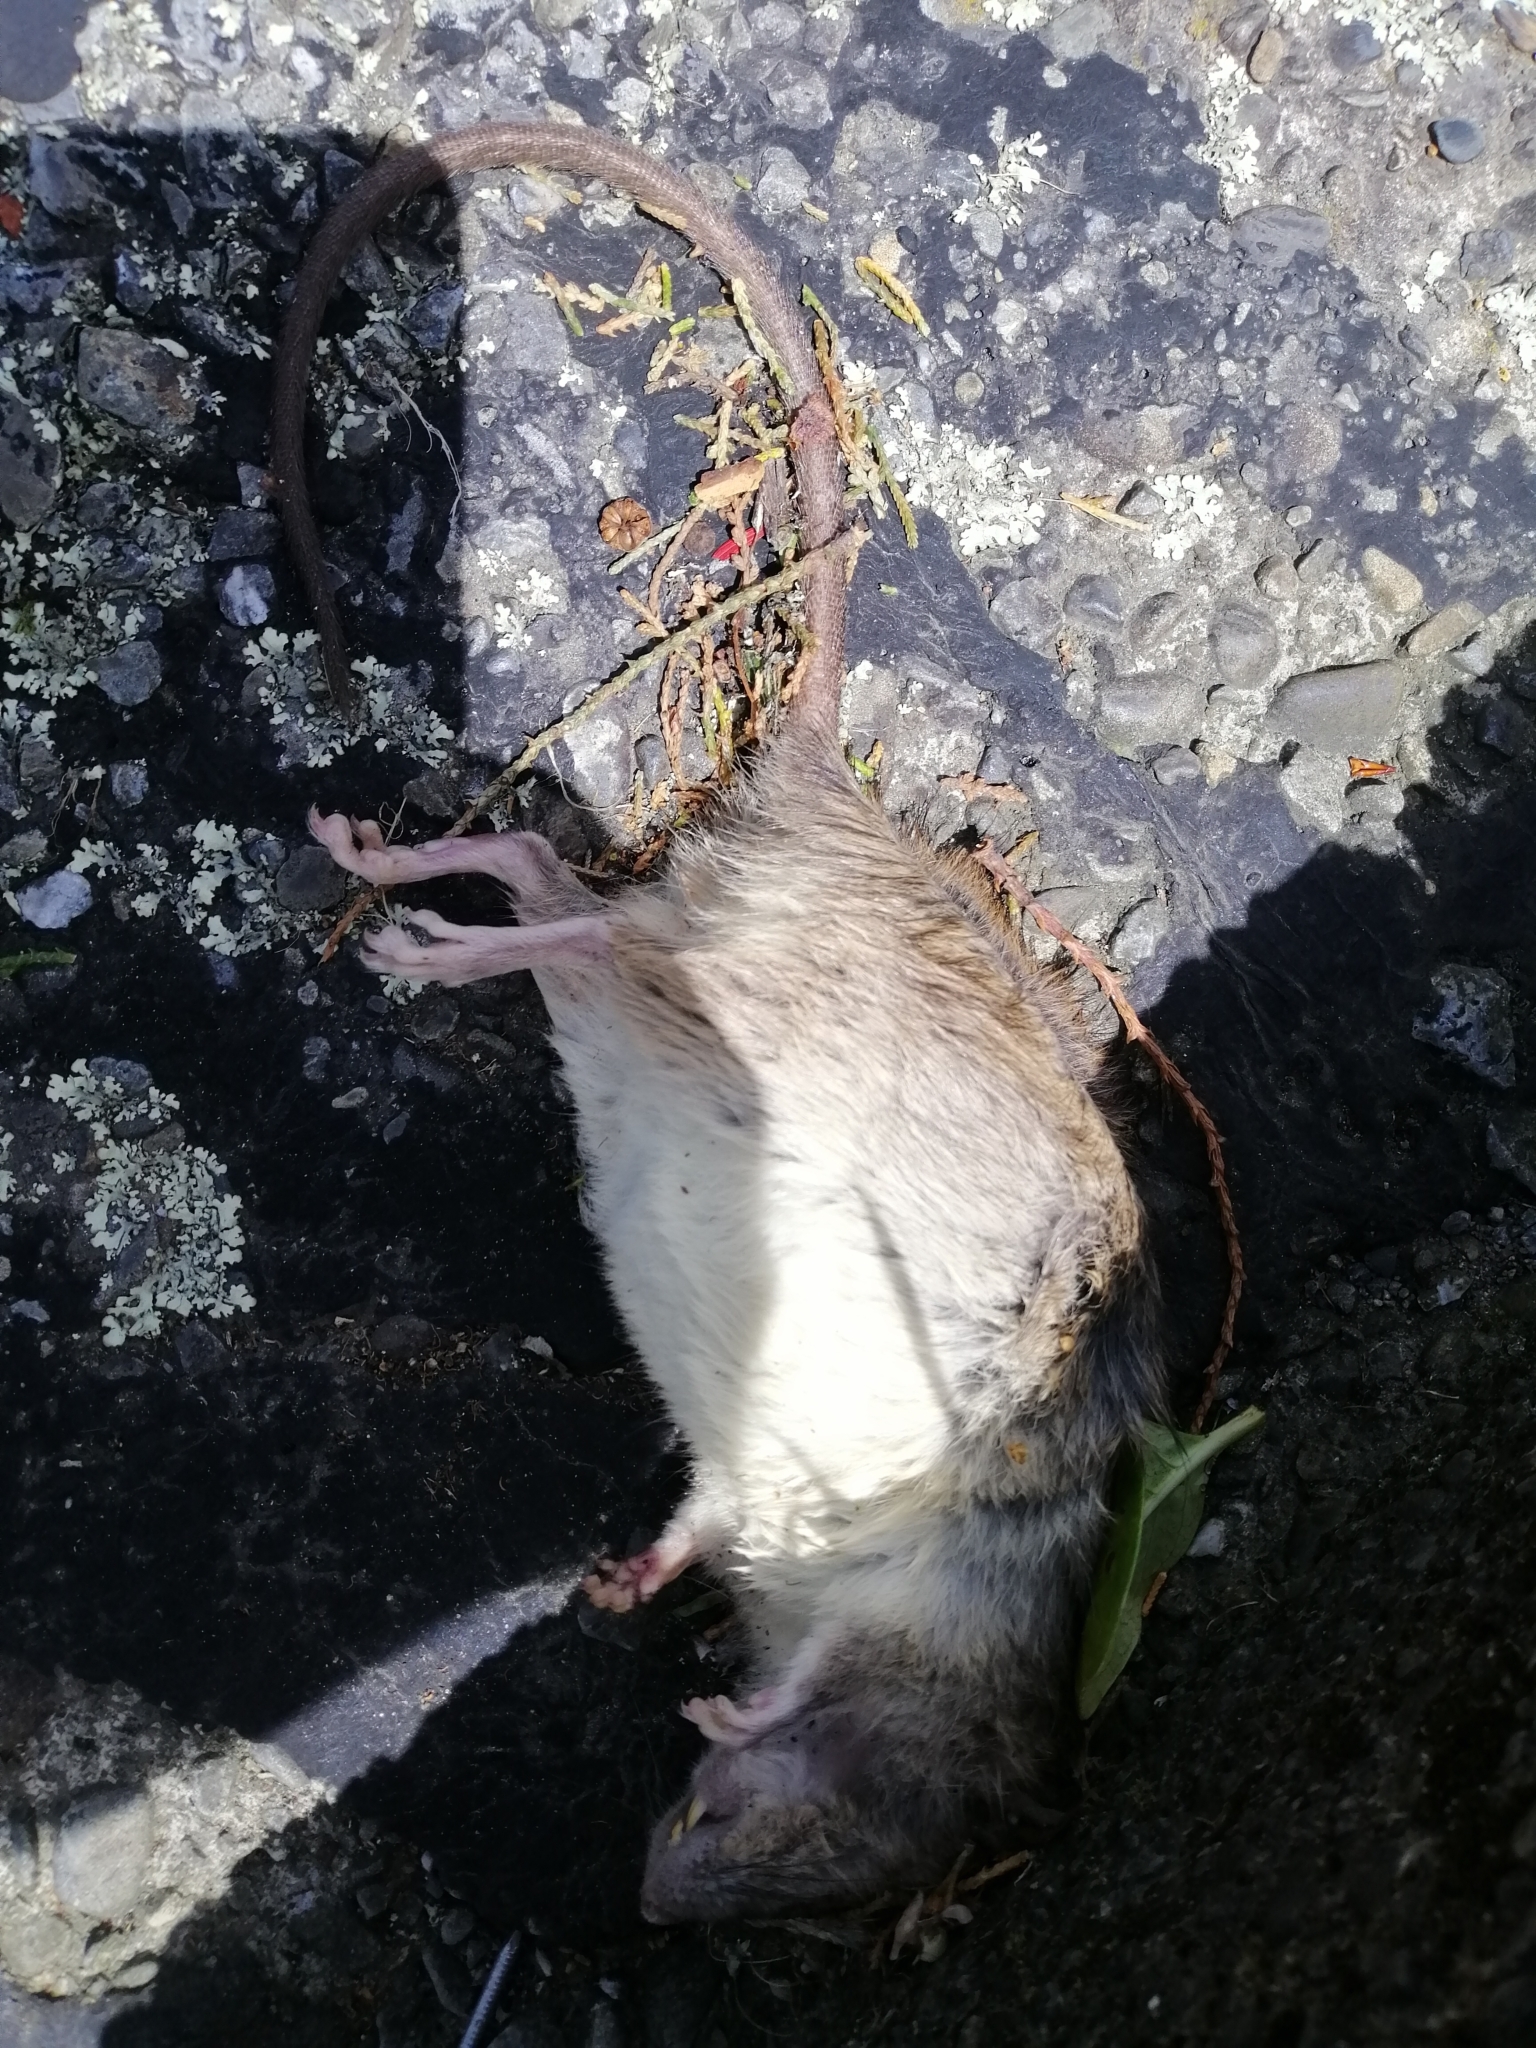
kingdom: Animalia
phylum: Chordata
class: Mammalia
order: Rodentia
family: Muridae
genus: Rattus
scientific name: Rattus rattus
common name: Black rat
